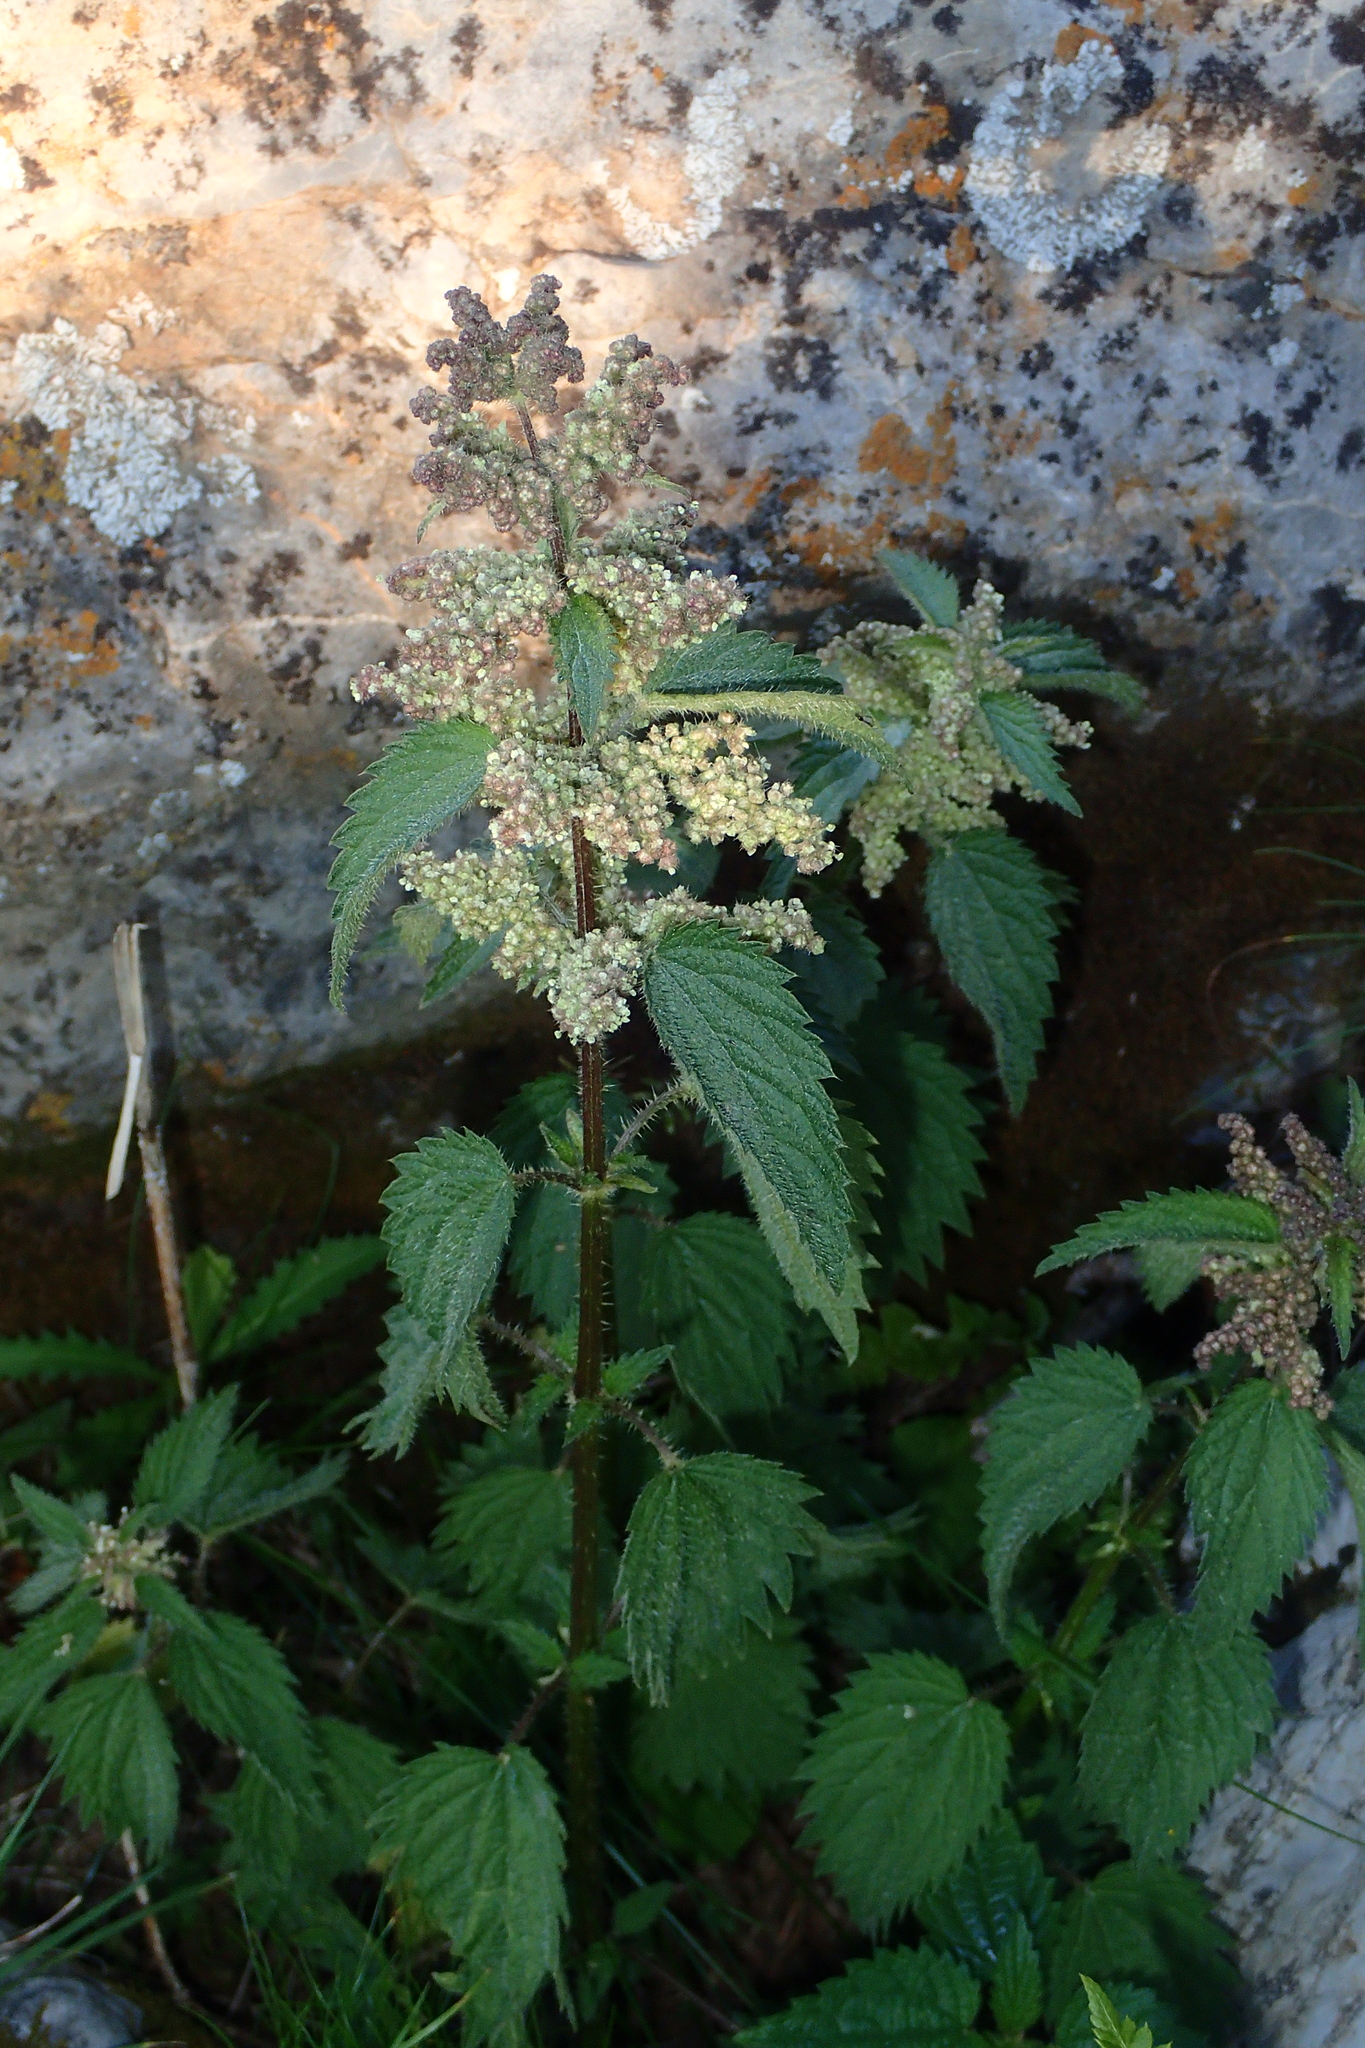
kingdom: Plantae
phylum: Tracheophyta
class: Magnoliopsida
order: Rosales
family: Urticaceae
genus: Urtica
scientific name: Urtica dioica
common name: Common nettle
